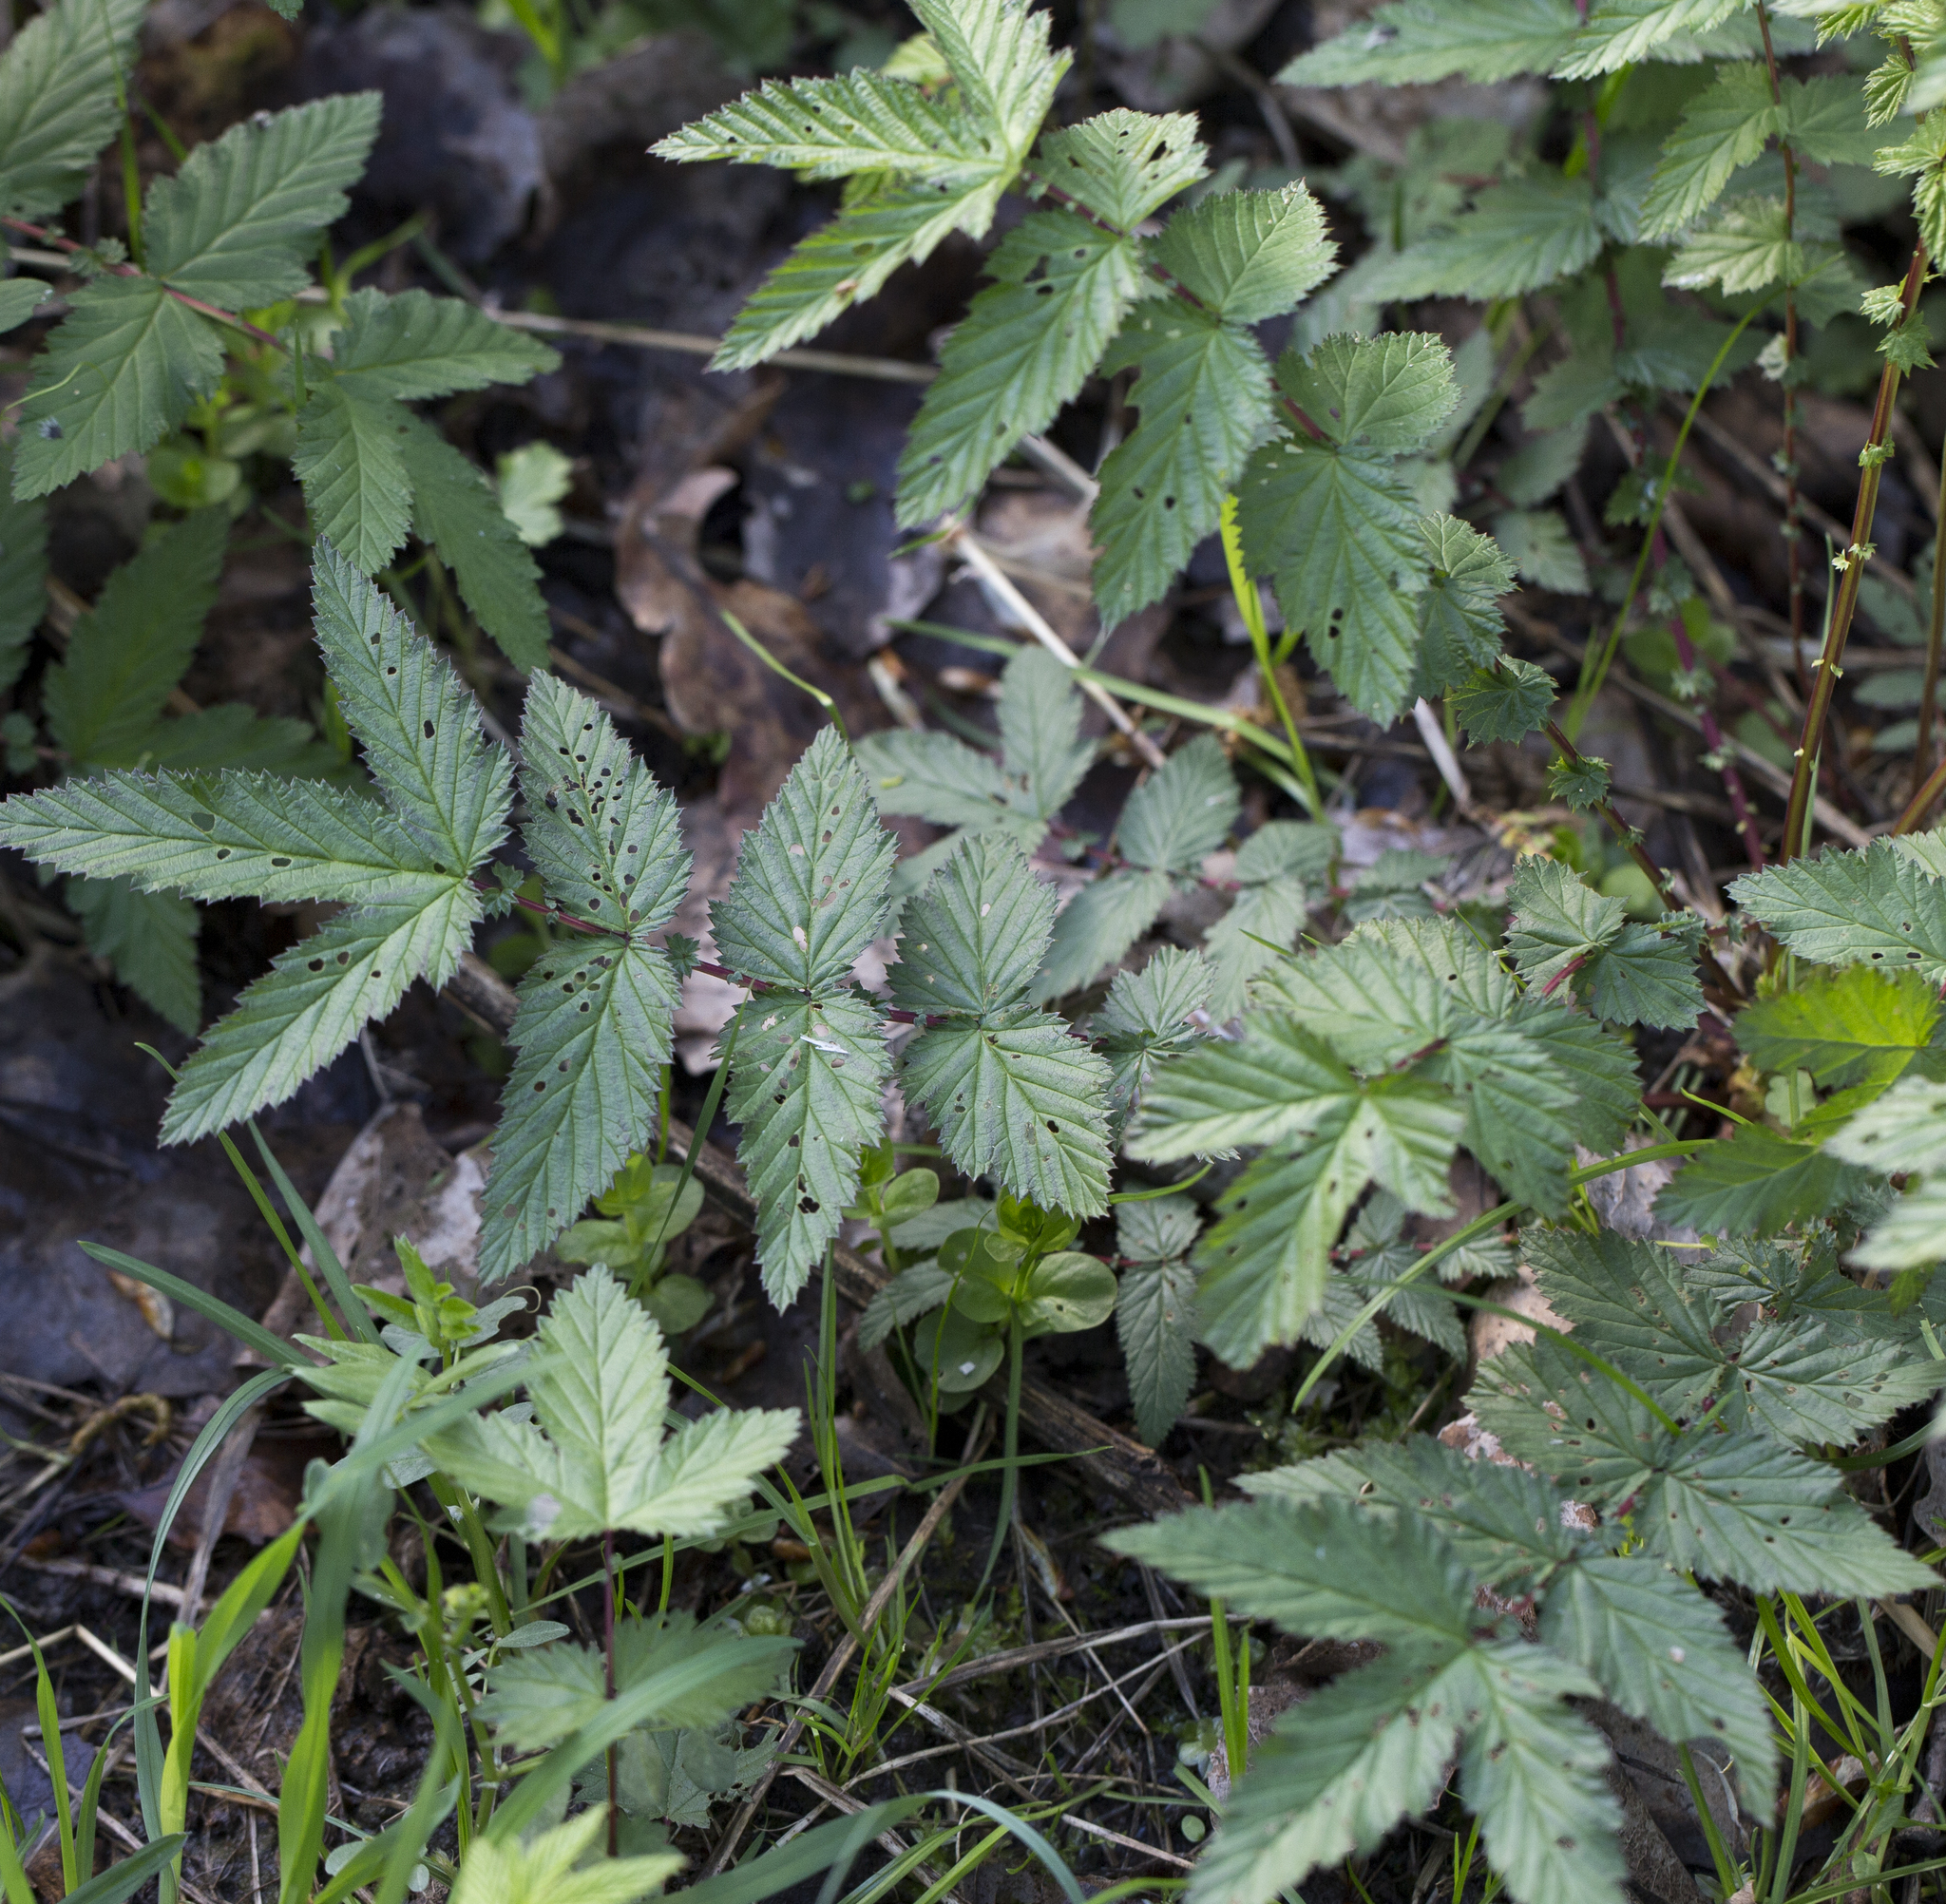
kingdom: Plantae
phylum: Tracheophyta
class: Magnoliopsida
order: Rosales
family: Rosaceae
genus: Filipendula
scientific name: Filipendula ulmaria
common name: Meadowsweet
